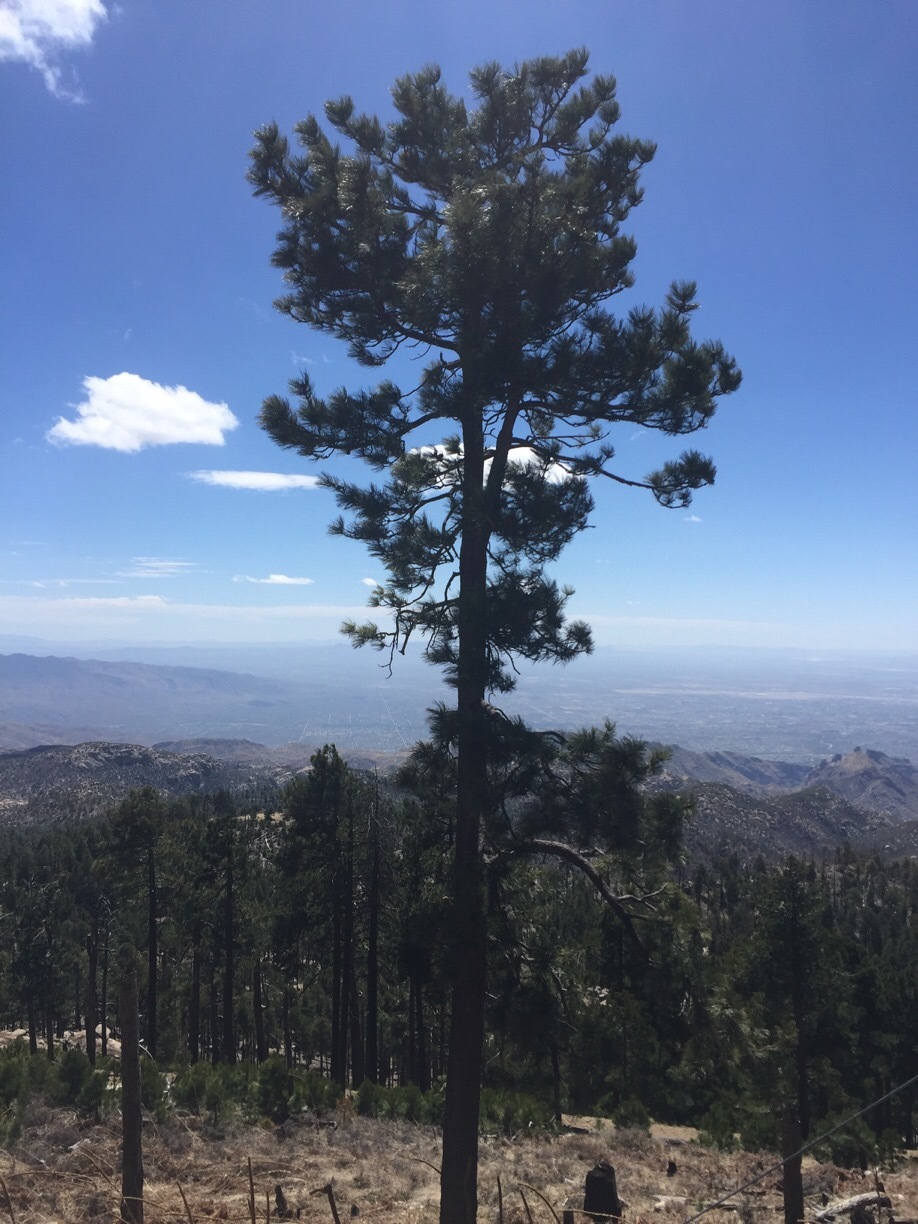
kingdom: Plantae
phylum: Tracheophyta
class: Pinopsida
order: Pinales
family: Pinaceae
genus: Pinus
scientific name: Pinus ponderosa
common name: Western yellow-pine
